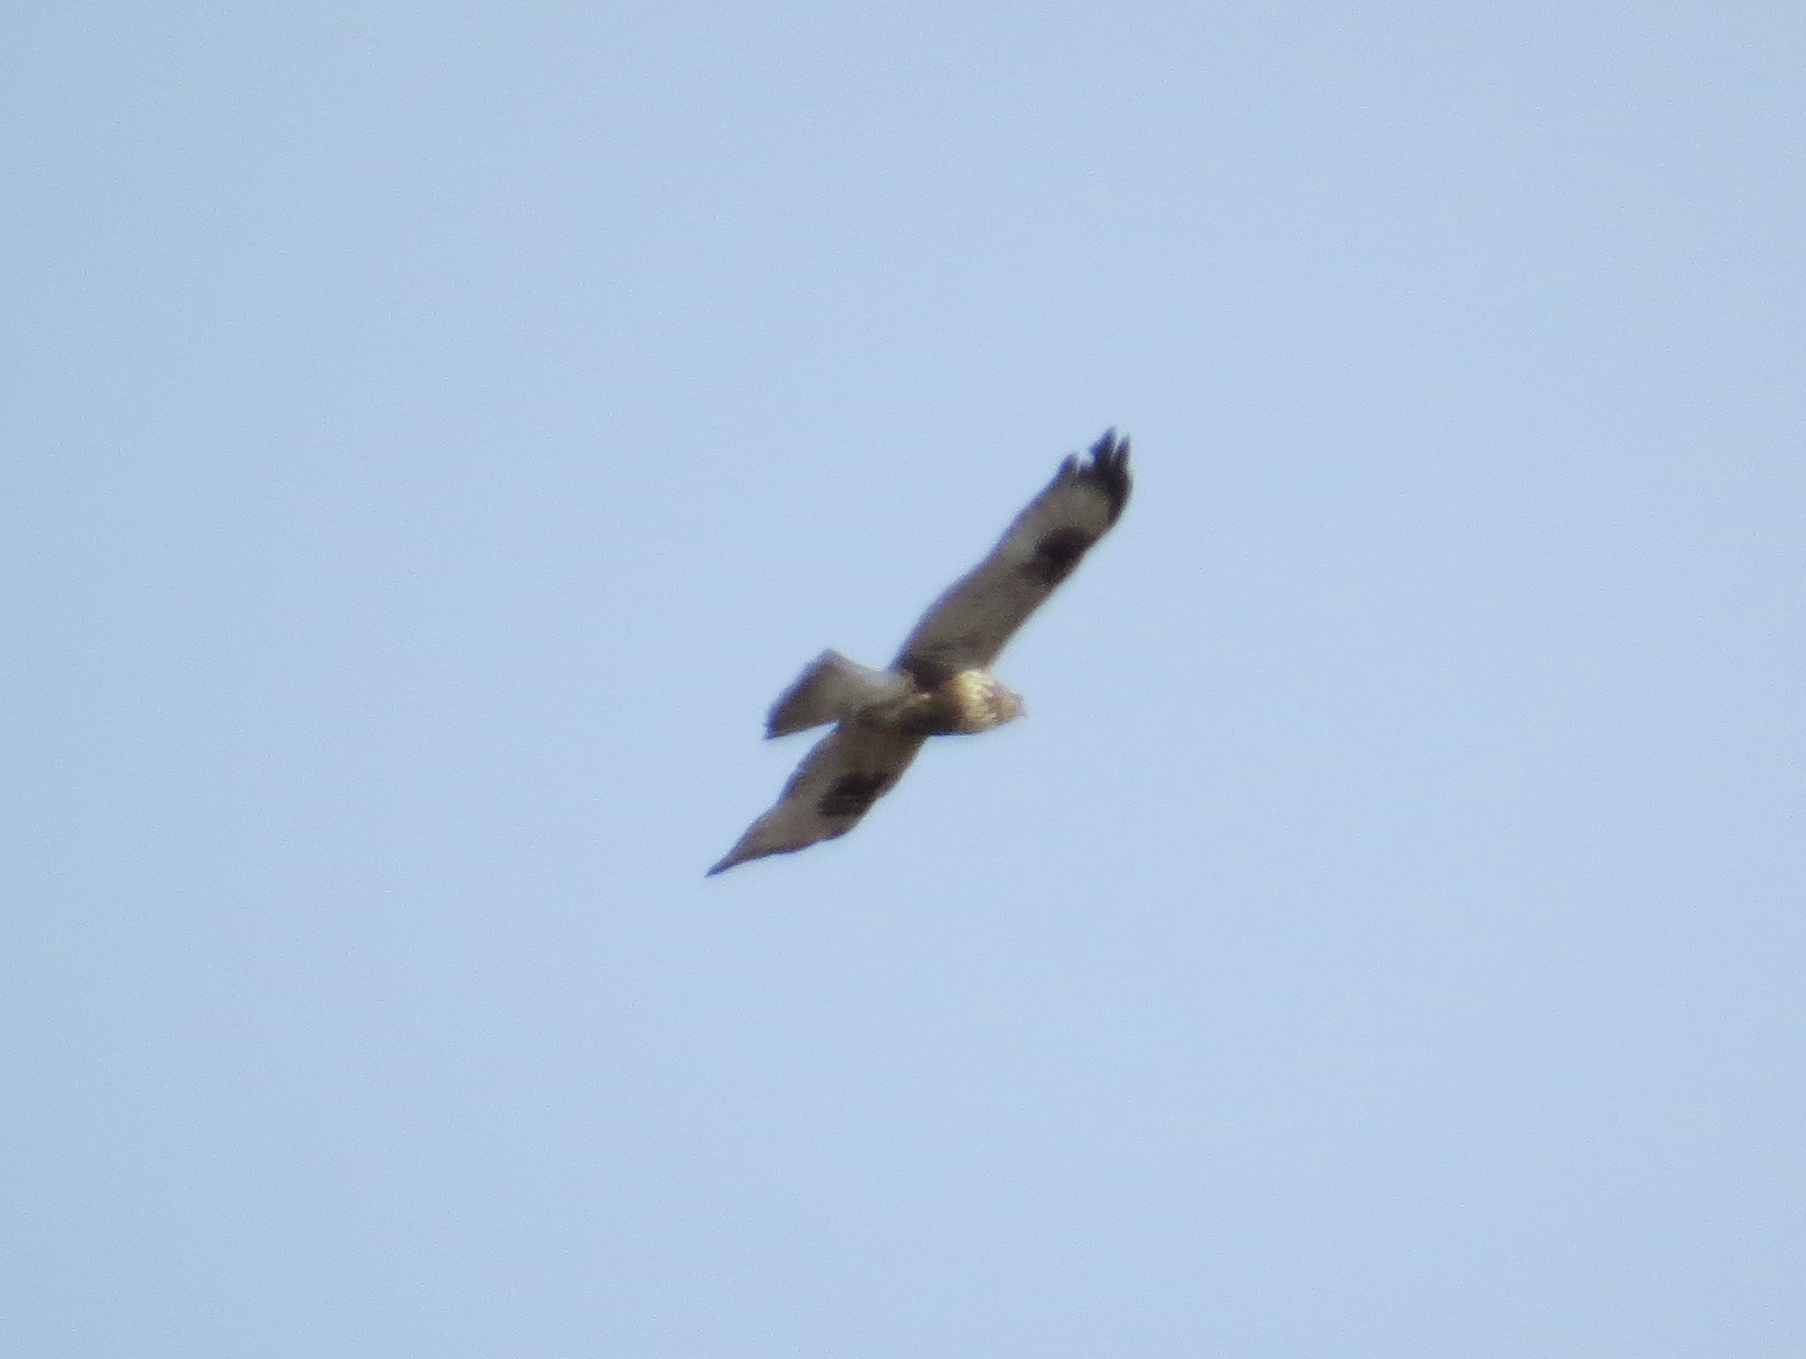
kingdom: Animalia
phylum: Chordata
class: Aves
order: Accipitriformes
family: Accipitridae
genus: Buteo
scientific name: Buteo lagopus
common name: Rough-legged buzzard
